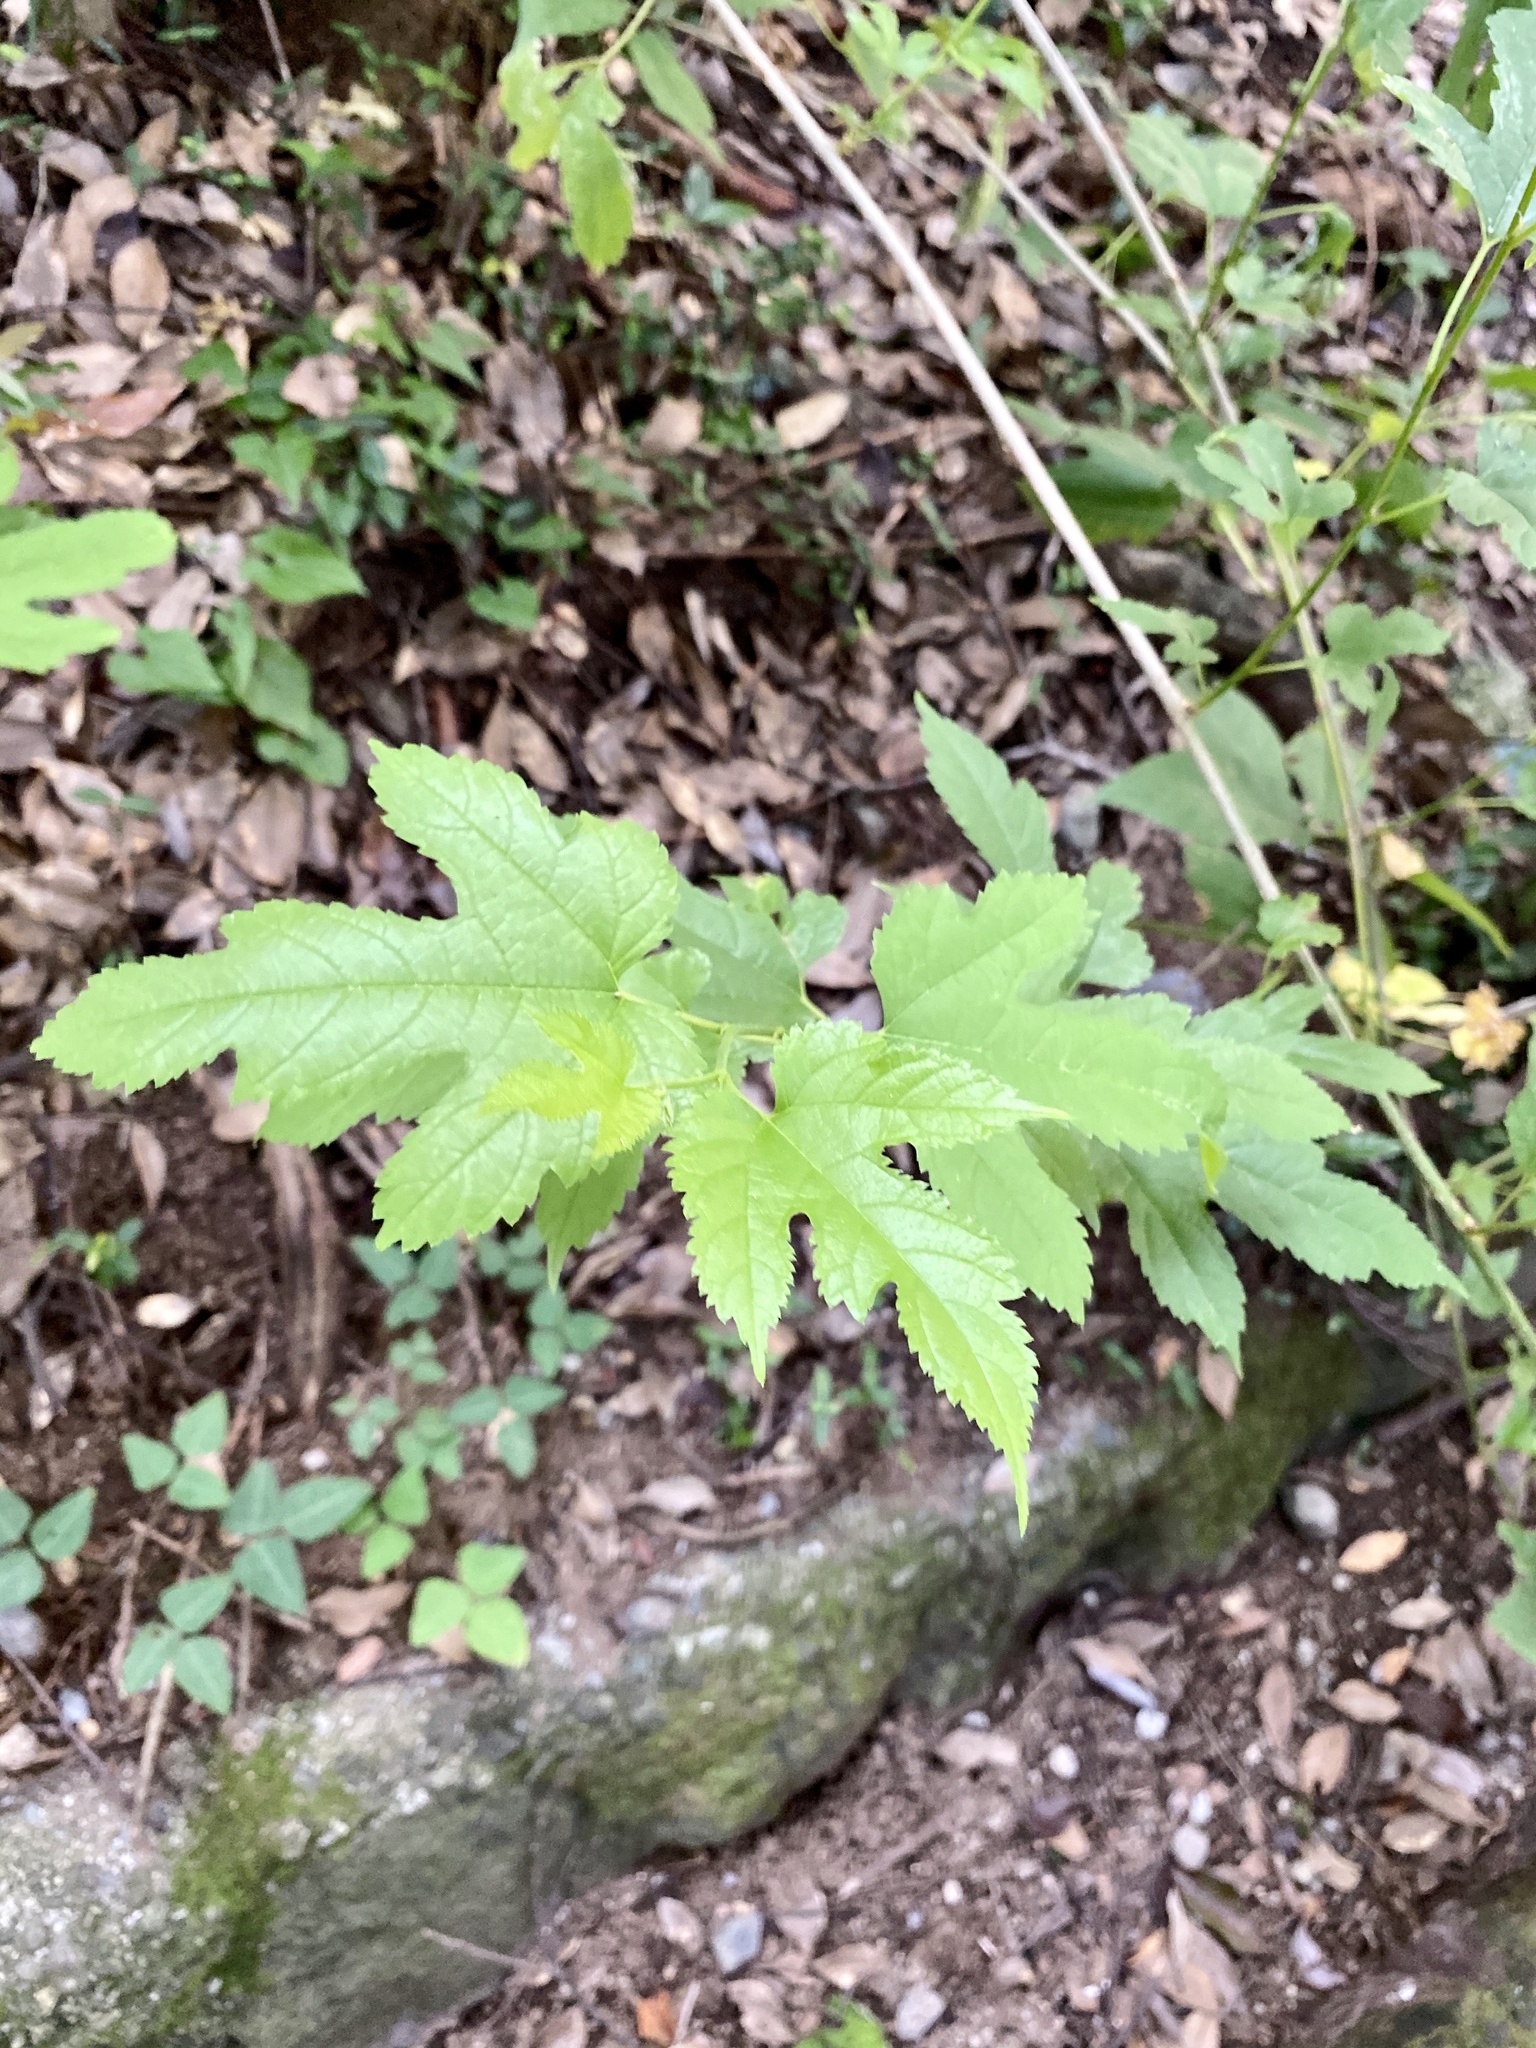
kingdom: Plantae
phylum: Tracheophyta
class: Magnoliopsida
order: Rosales
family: Moraceae
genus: Morus
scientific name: Morus indica
